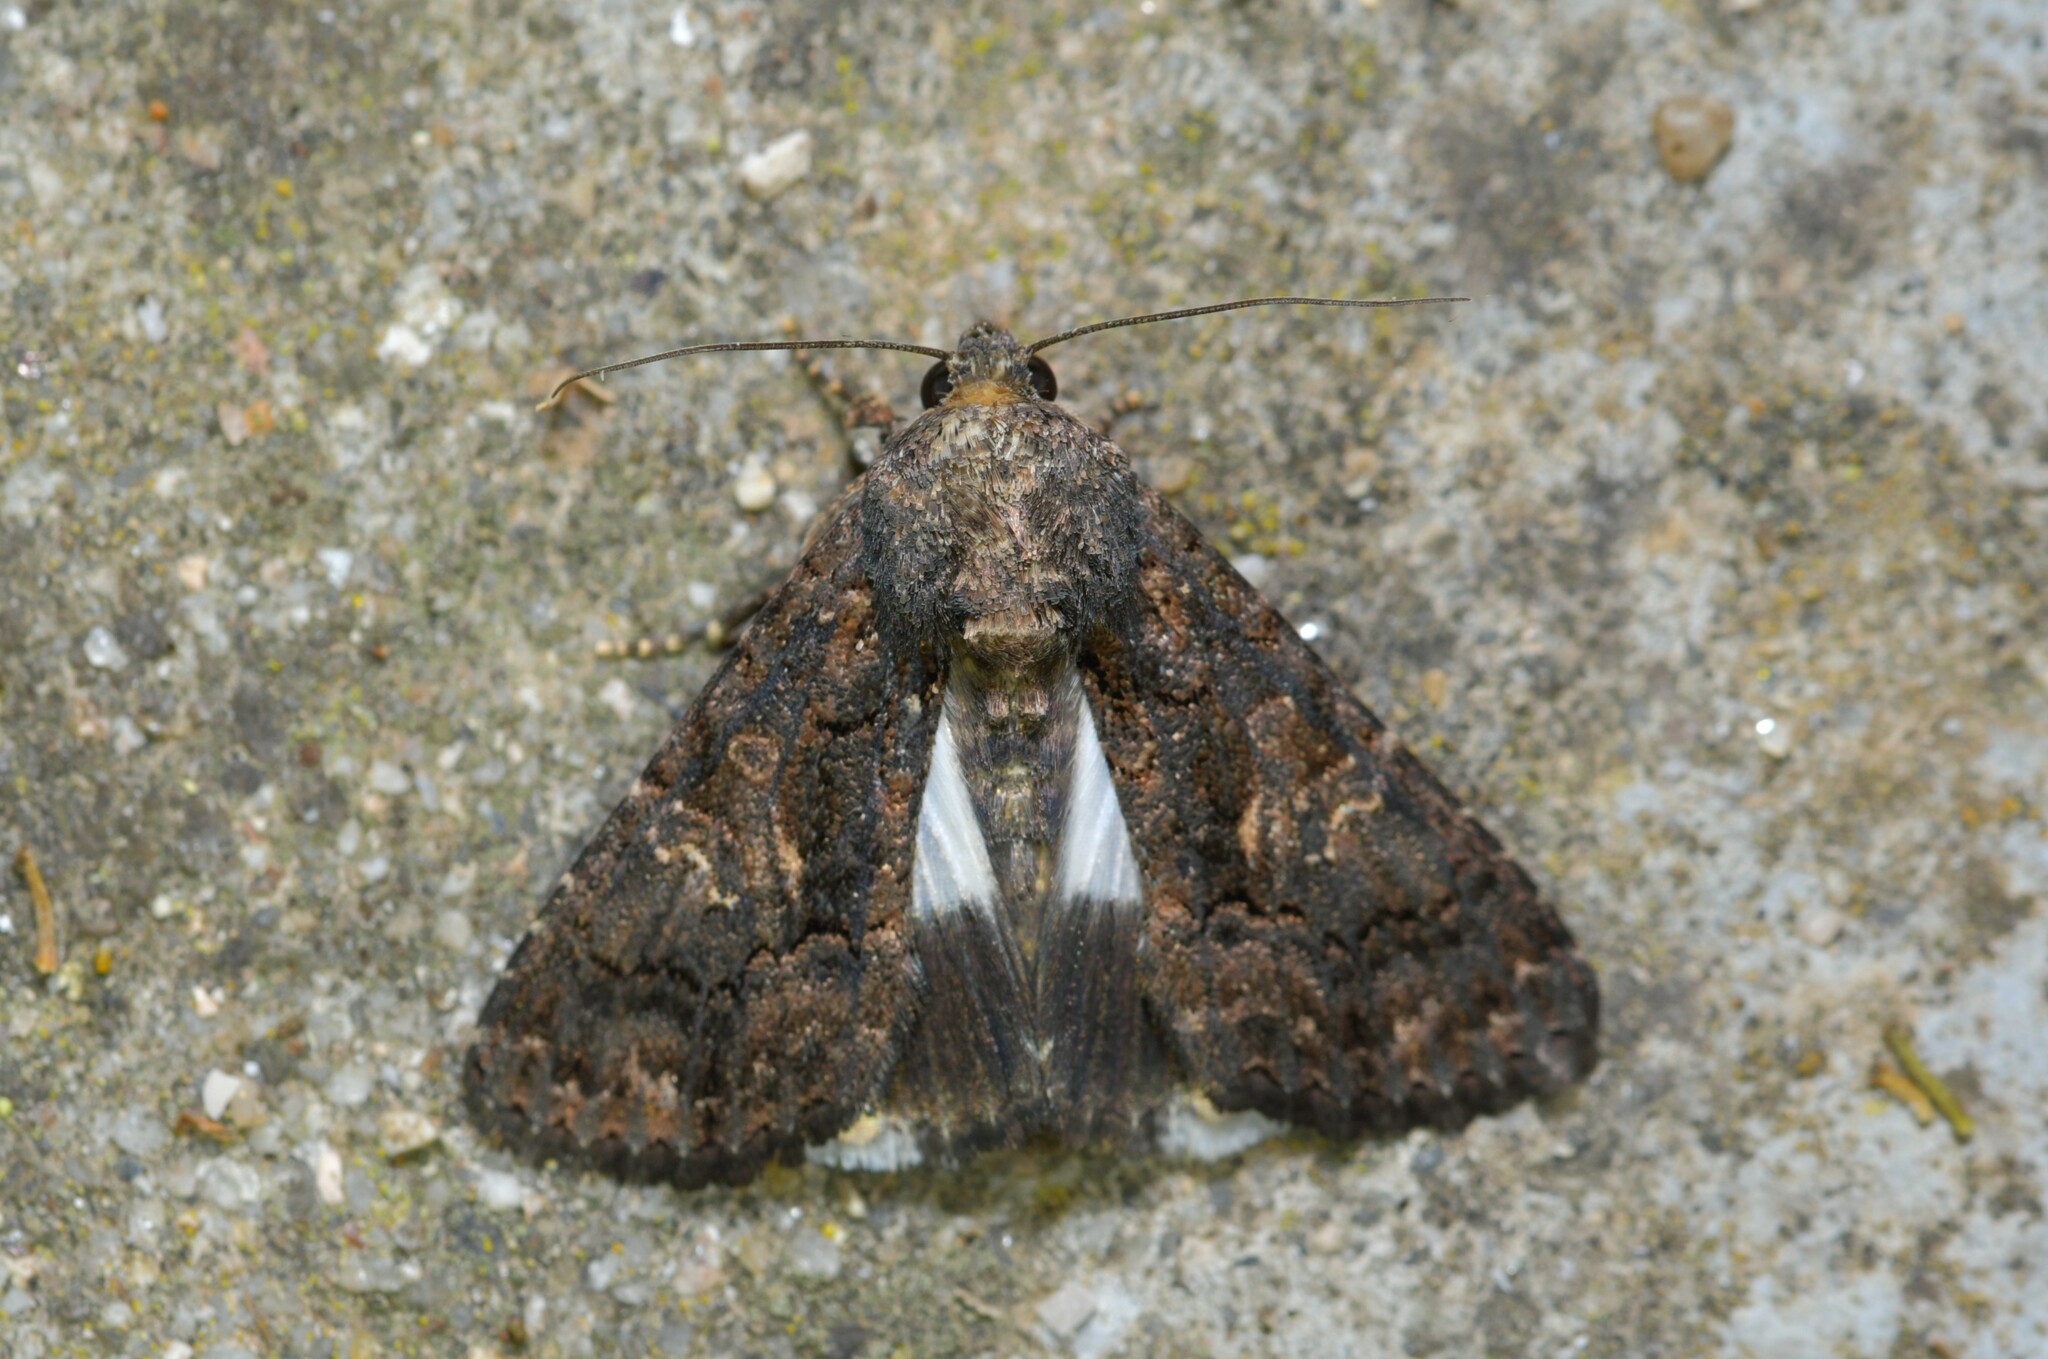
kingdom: Animalia
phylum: Arthropoda
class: Insecta
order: Lepidoptera
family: Noctuidae
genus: Aedia
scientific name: Aedia leucomelas
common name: Sorcerer
